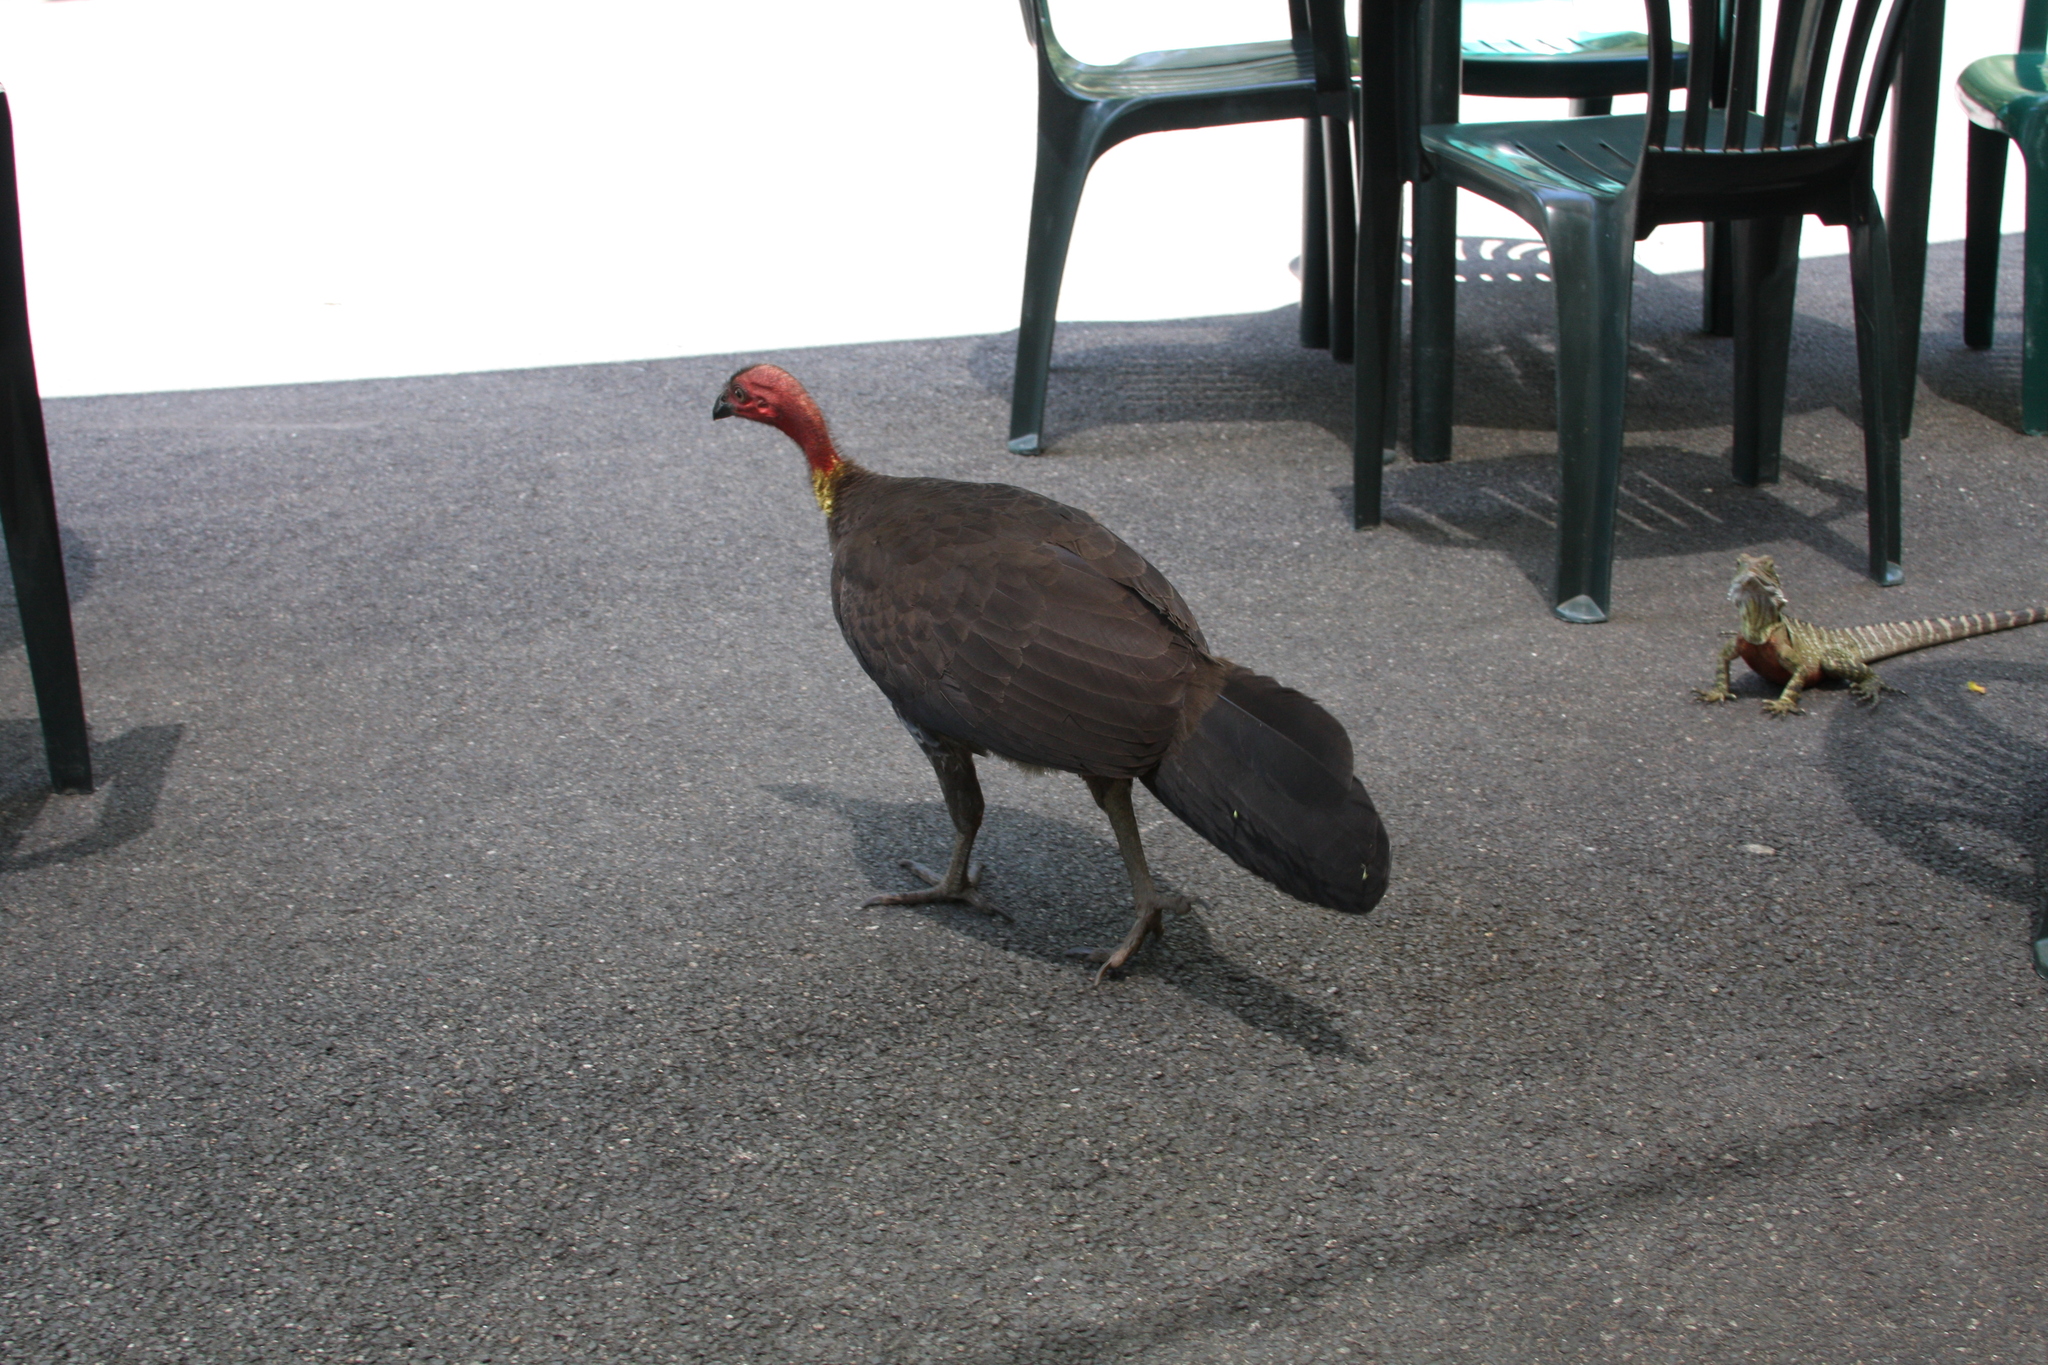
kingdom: Animalia
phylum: Chordata
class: Aves
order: Galliformes
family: Megapodiidae
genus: Alectura
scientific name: Alectura lathami
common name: Australian brushturkey
